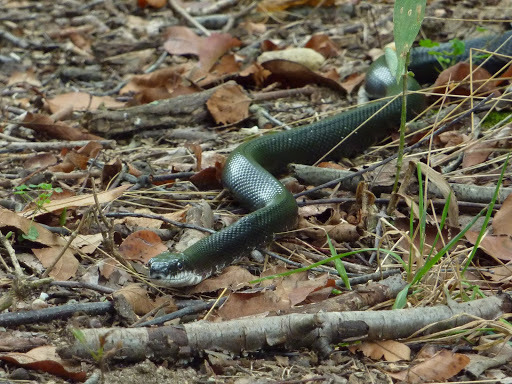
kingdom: Animalia
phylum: Chordata
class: Squamata
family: Colubridae
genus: Pantherophis
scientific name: Pantherophis alleghaniensis
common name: Eastern rat snake
